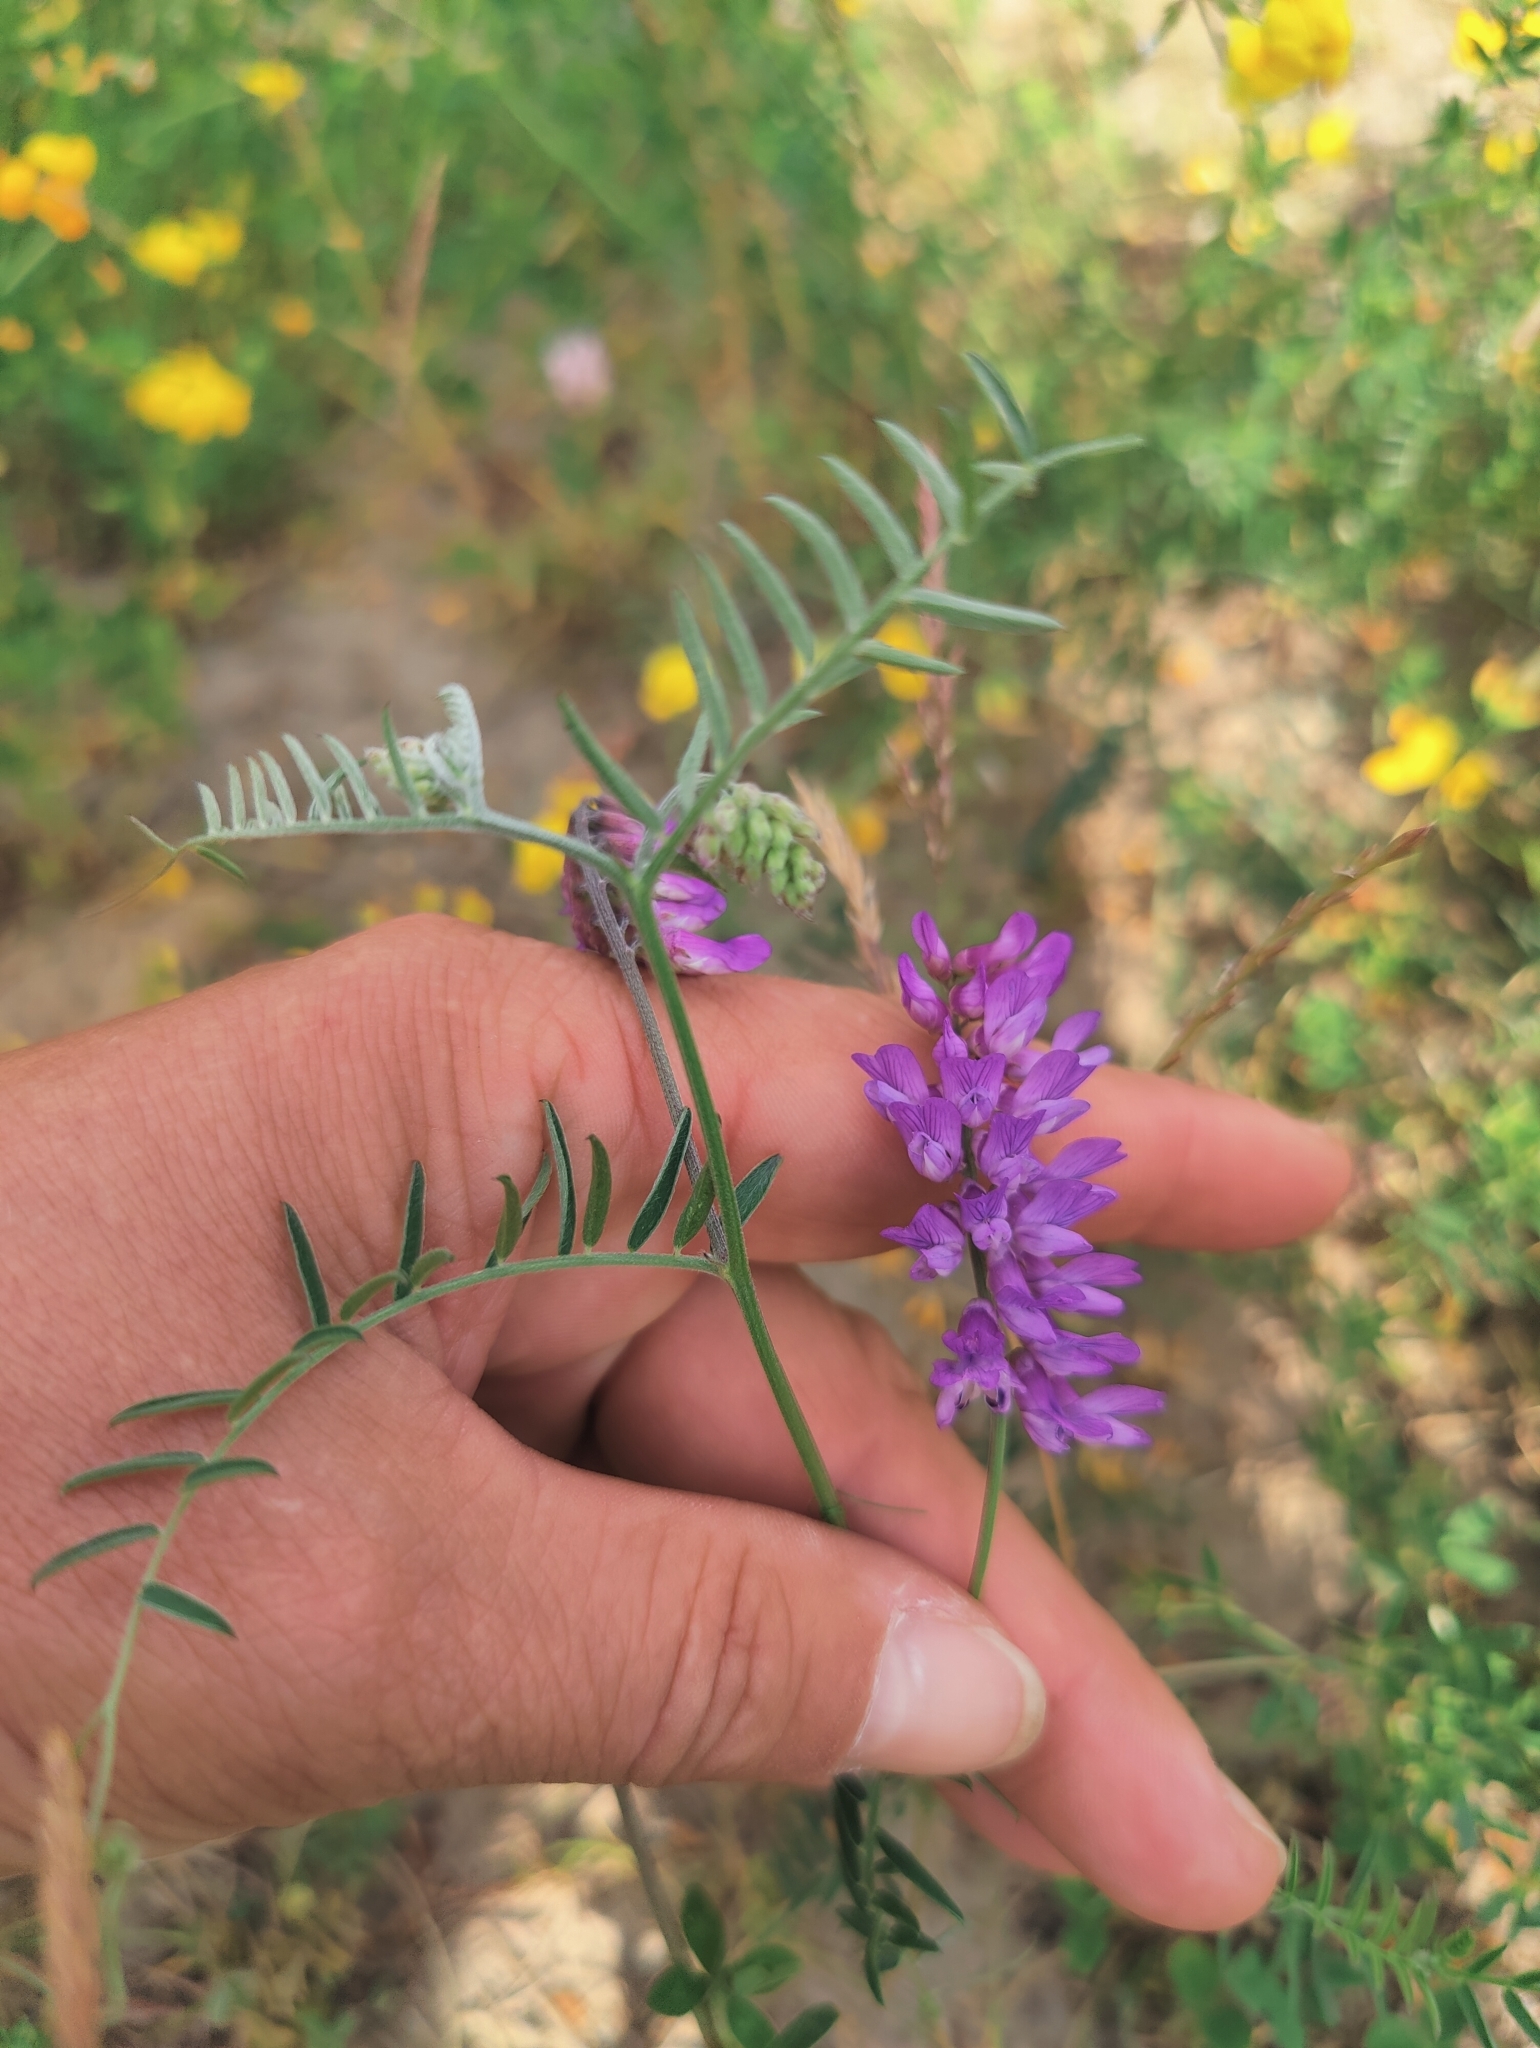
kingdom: Plantae
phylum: Tracheophyta
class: Magnoliopsida
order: Fabales
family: Fabaceae
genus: Vicia
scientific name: Vicia cracca
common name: Bird vetch
